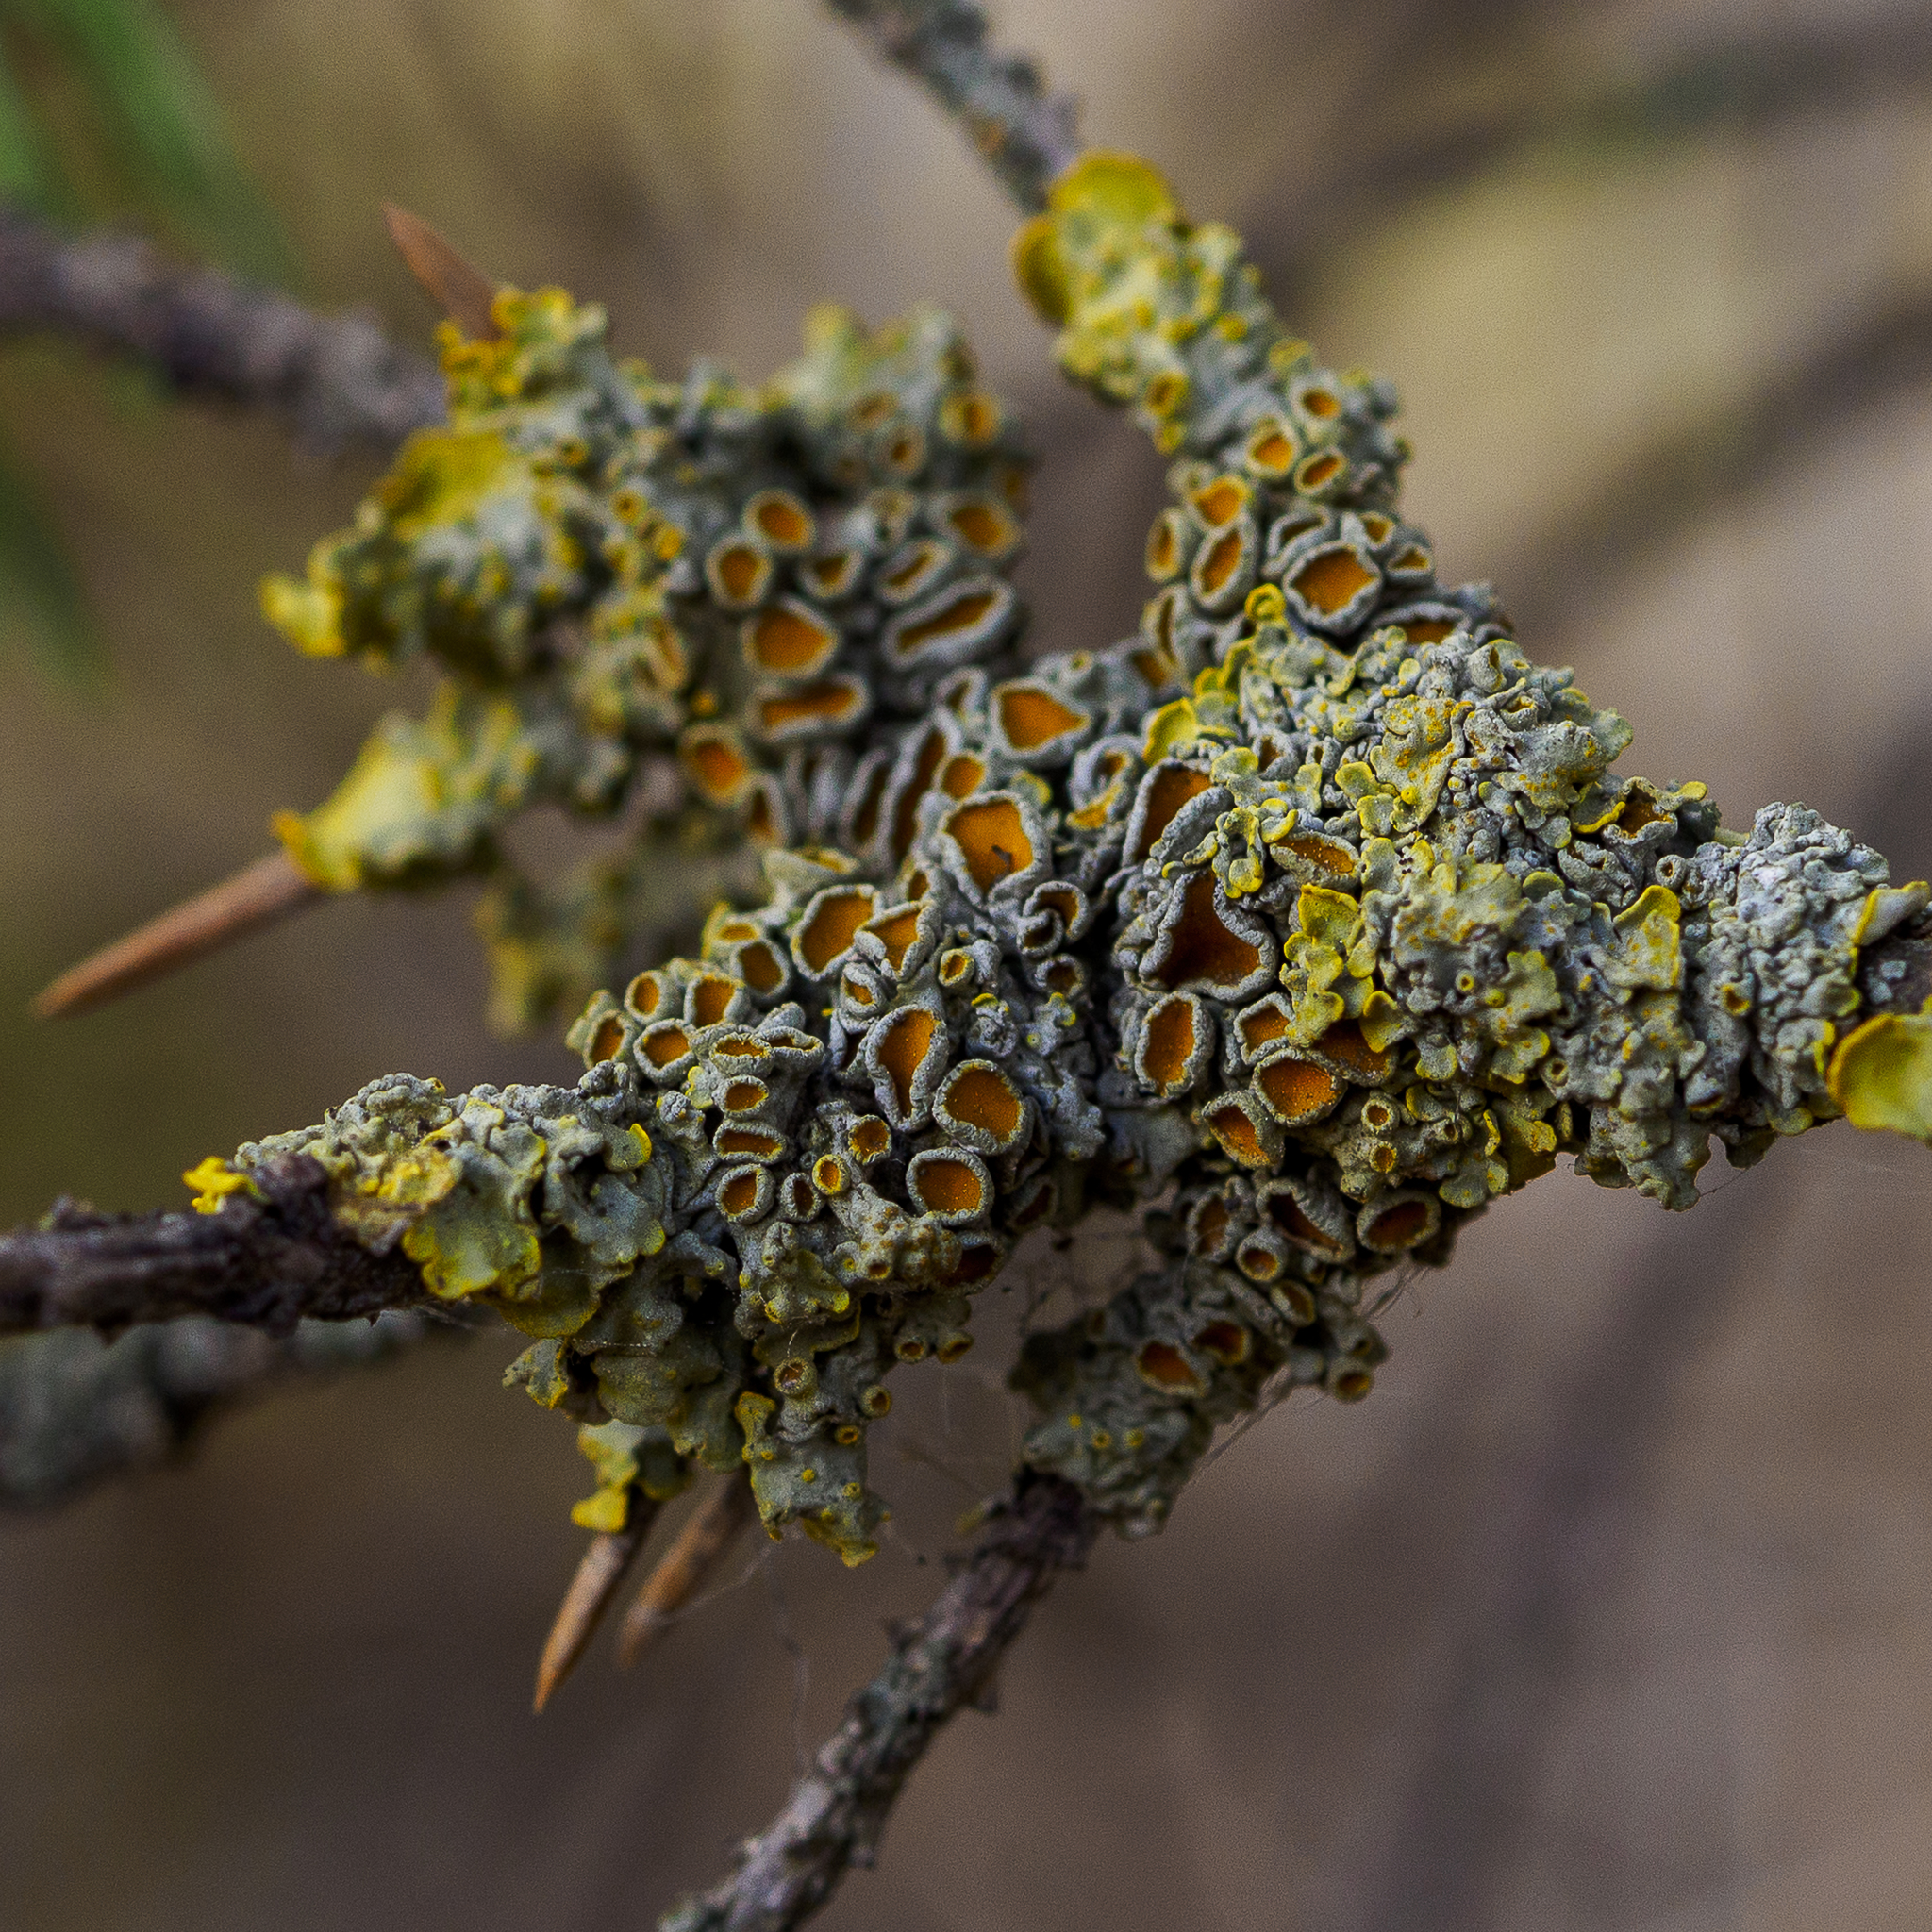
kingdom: Fungi
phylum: Ascomycota
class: Lecanoromycetes
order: Teloschistales
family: Teloschistaceae
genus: Xanthoria
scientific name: Xanthoria parietina
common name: Common orange lichen
